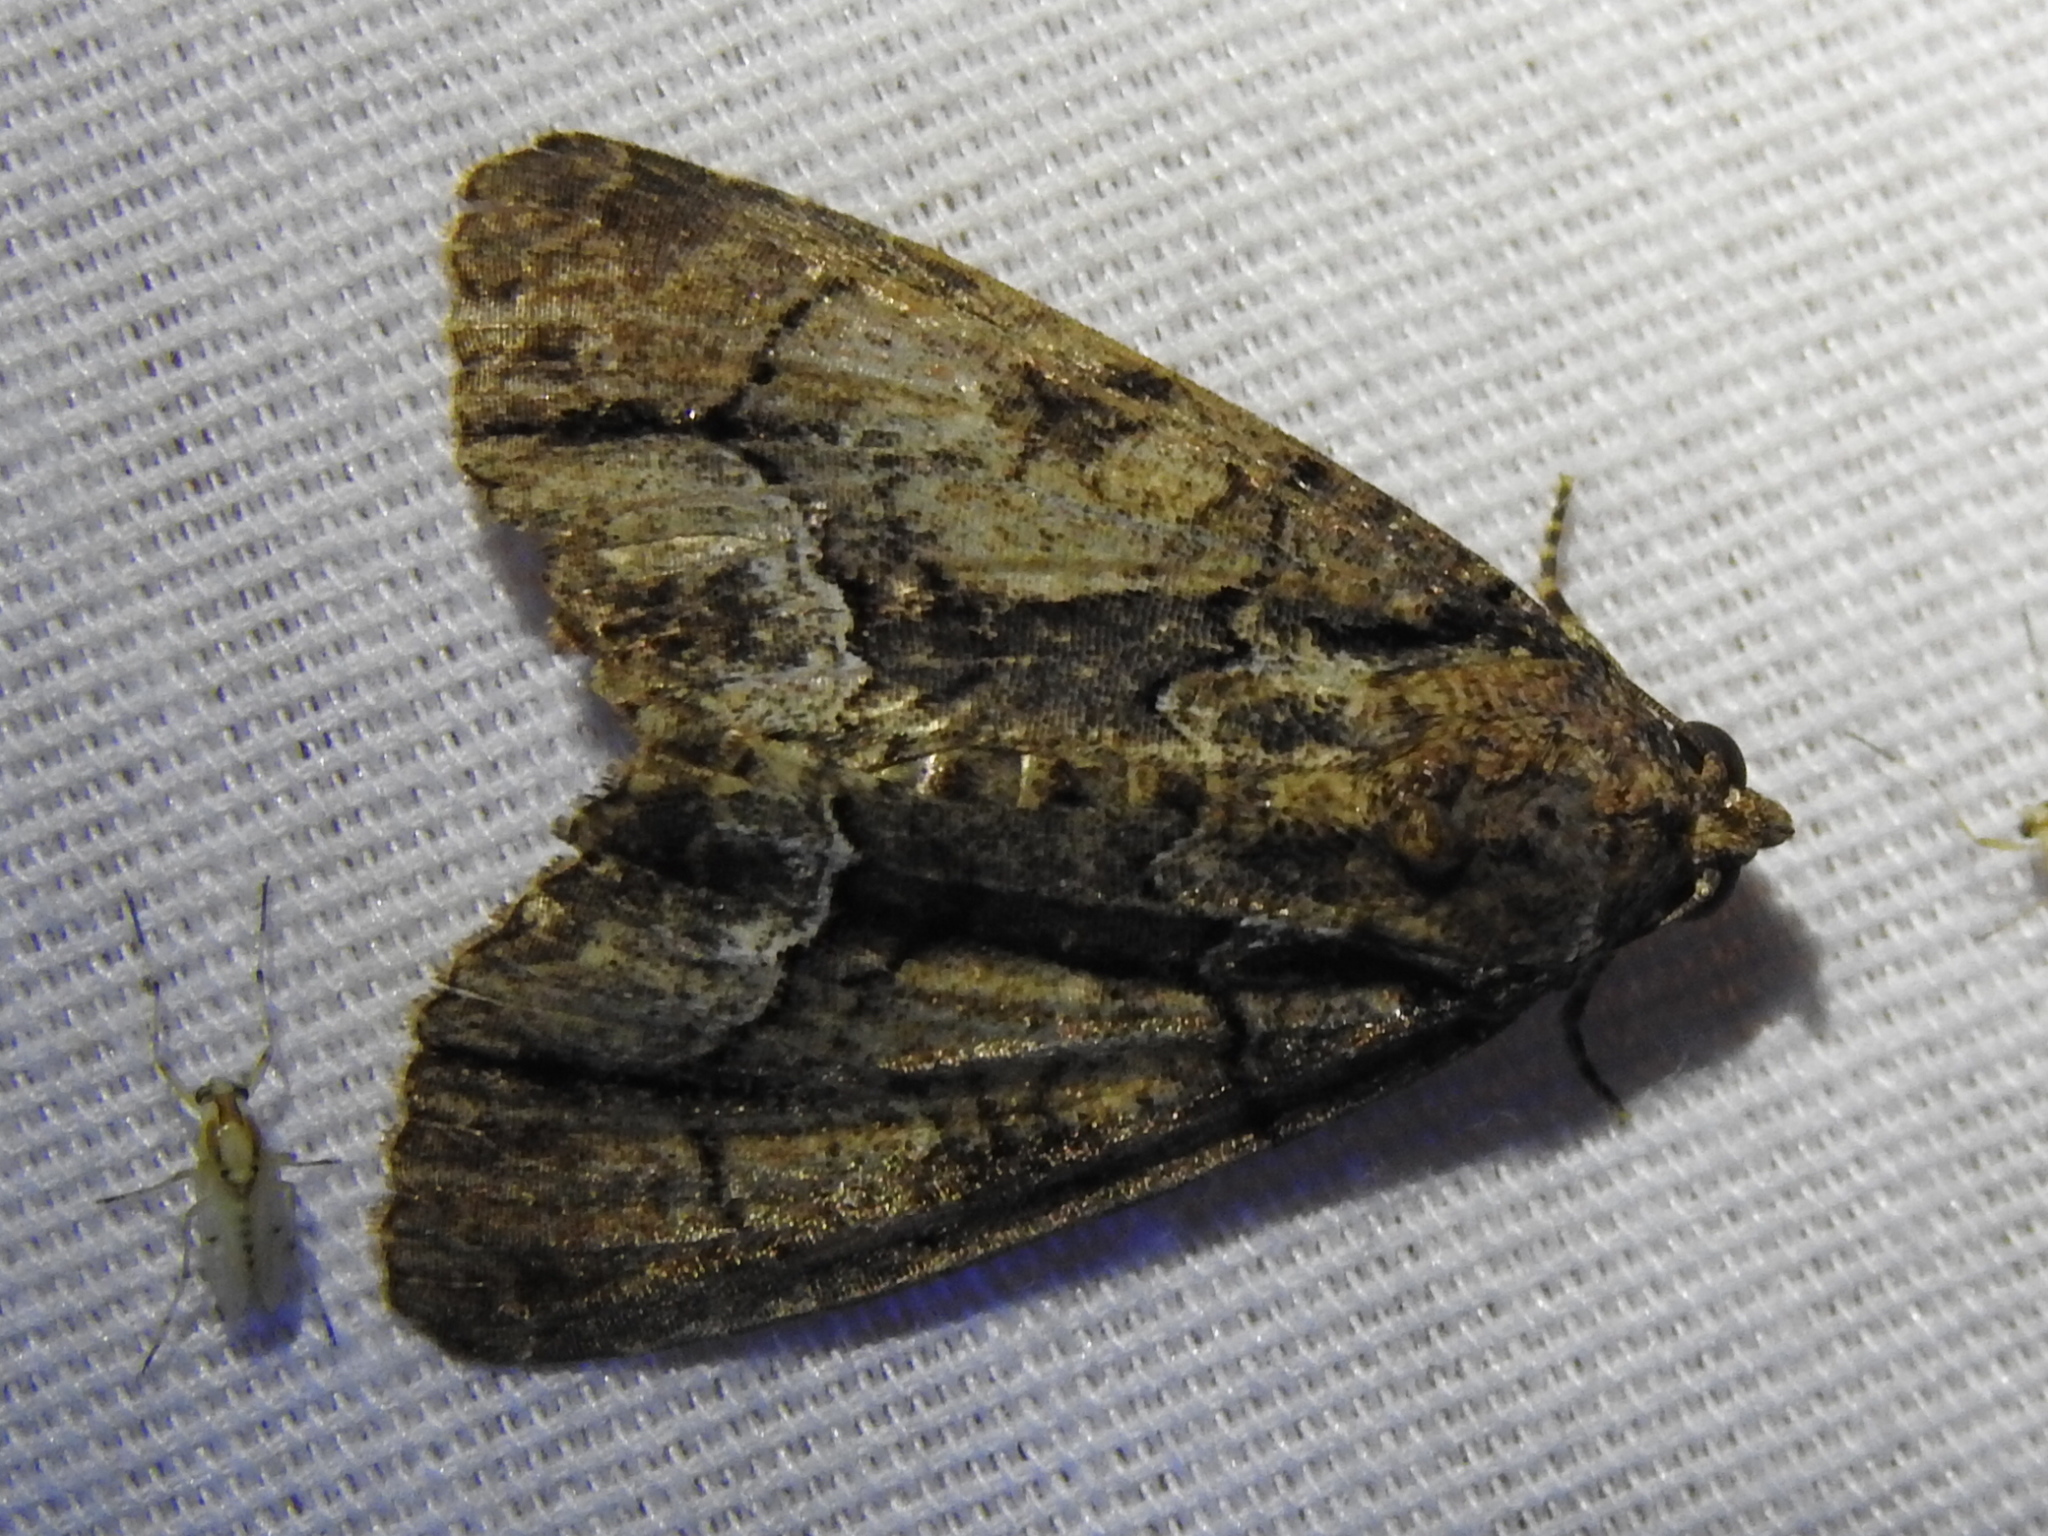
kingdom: Animalia
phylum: Arthropoda
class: Insecta
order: Lepidoptera
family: Noctuidae
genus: Cropia
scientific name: Cropia connecta
